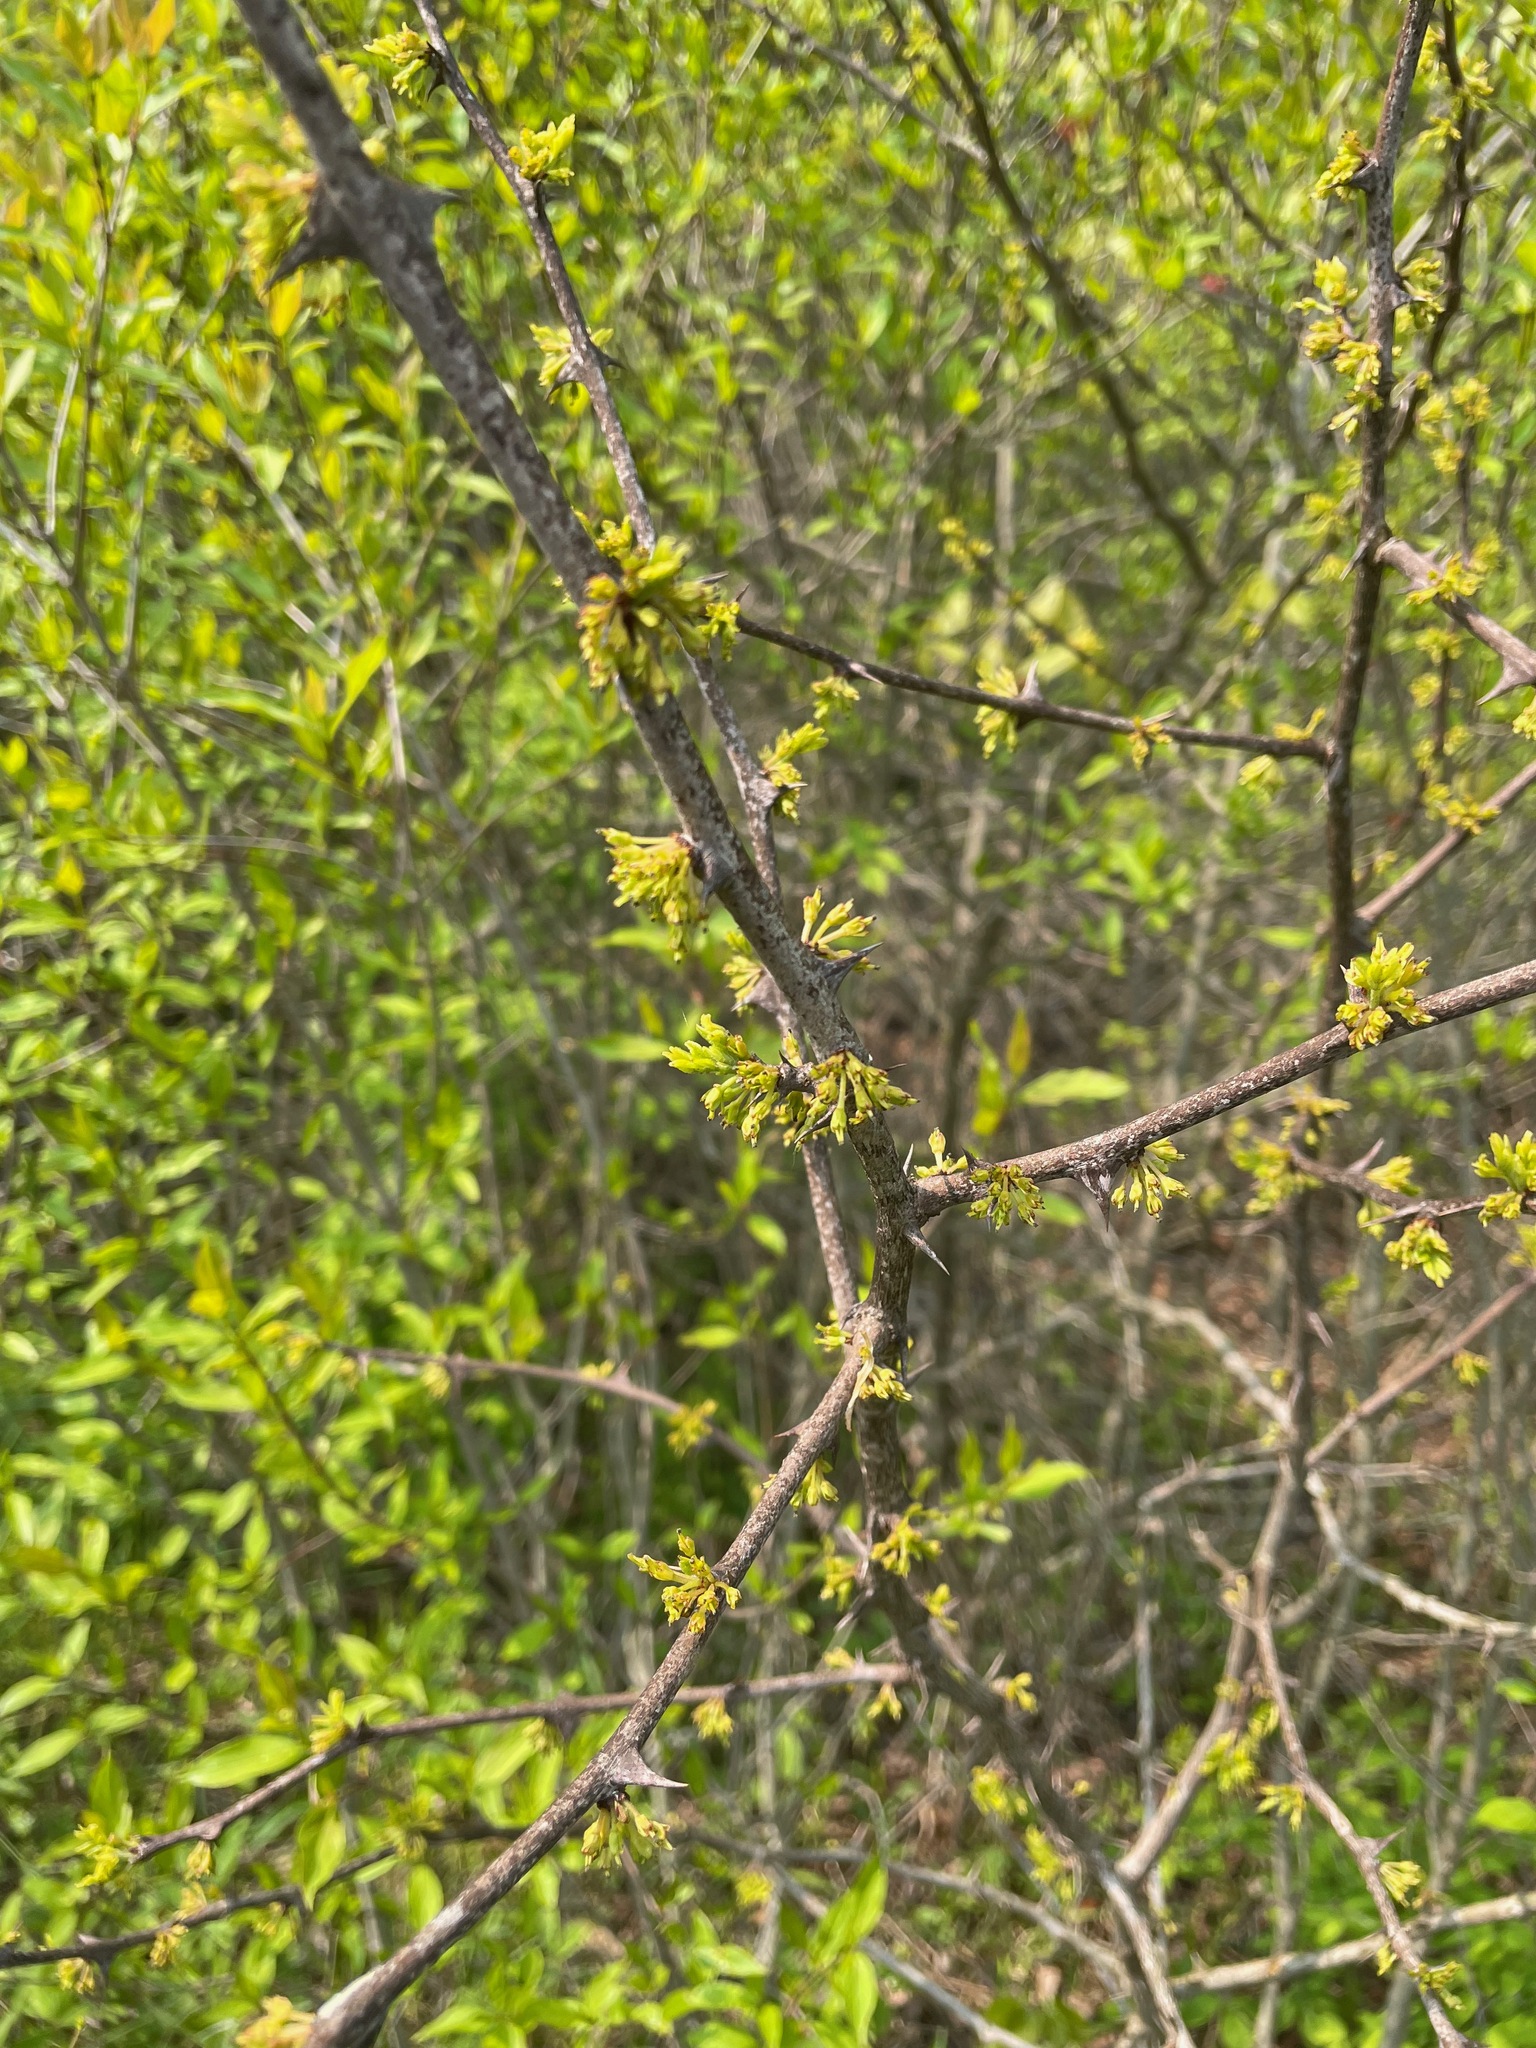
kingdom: Plantae
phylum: Tracheophyta
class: Magnoliopsida
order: Sapindales
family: Rutaceae
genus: Zanthoxylum
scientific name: Zanthoxylum americanum
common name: Northern prickly-ash
